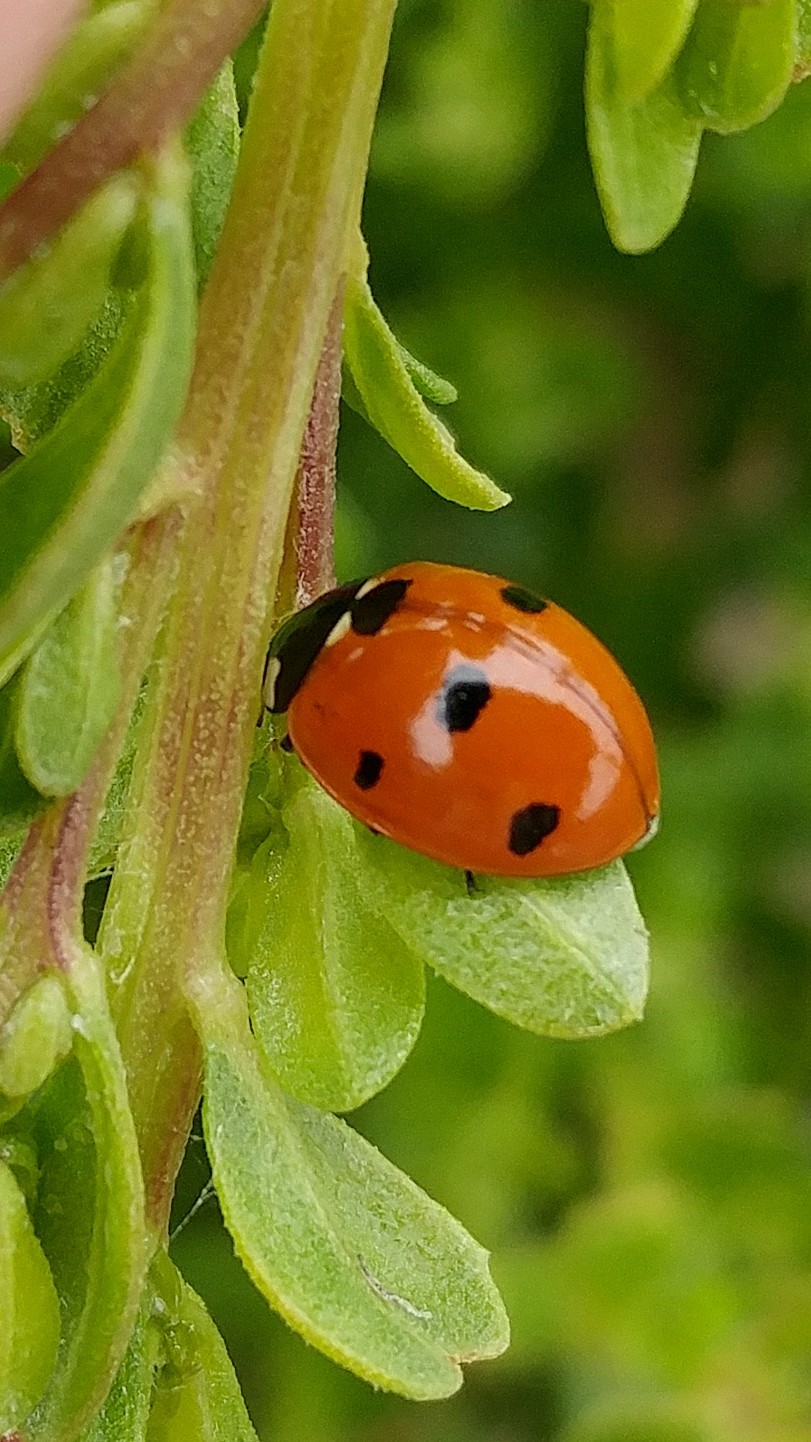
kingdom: Animalia
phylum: Arthropoda
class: Insecta
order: Coleoptera
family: Coccinellidae
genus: Coccinella
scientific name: Coccinella septempunctata
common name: Sevenspotted lady beetle
